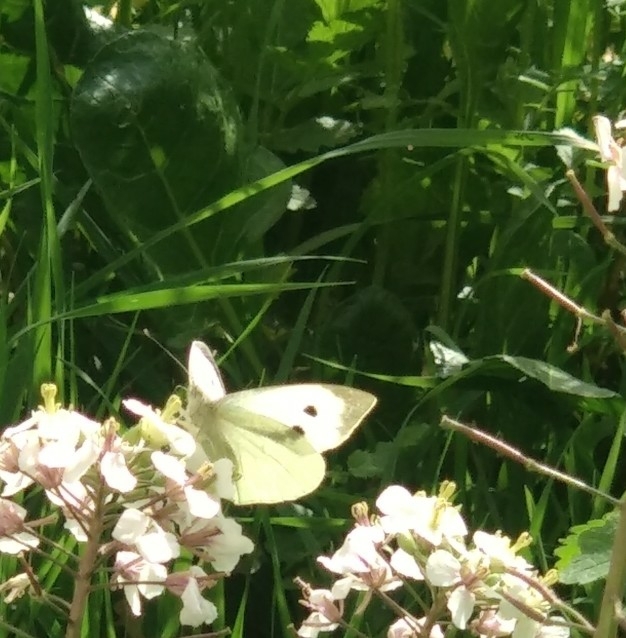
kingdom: Animalia
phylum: Arthropoda
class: Insecta
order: Lepidoptera
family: Pieridae
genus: Pieris
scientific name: Pieris brassicae
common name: Large white
